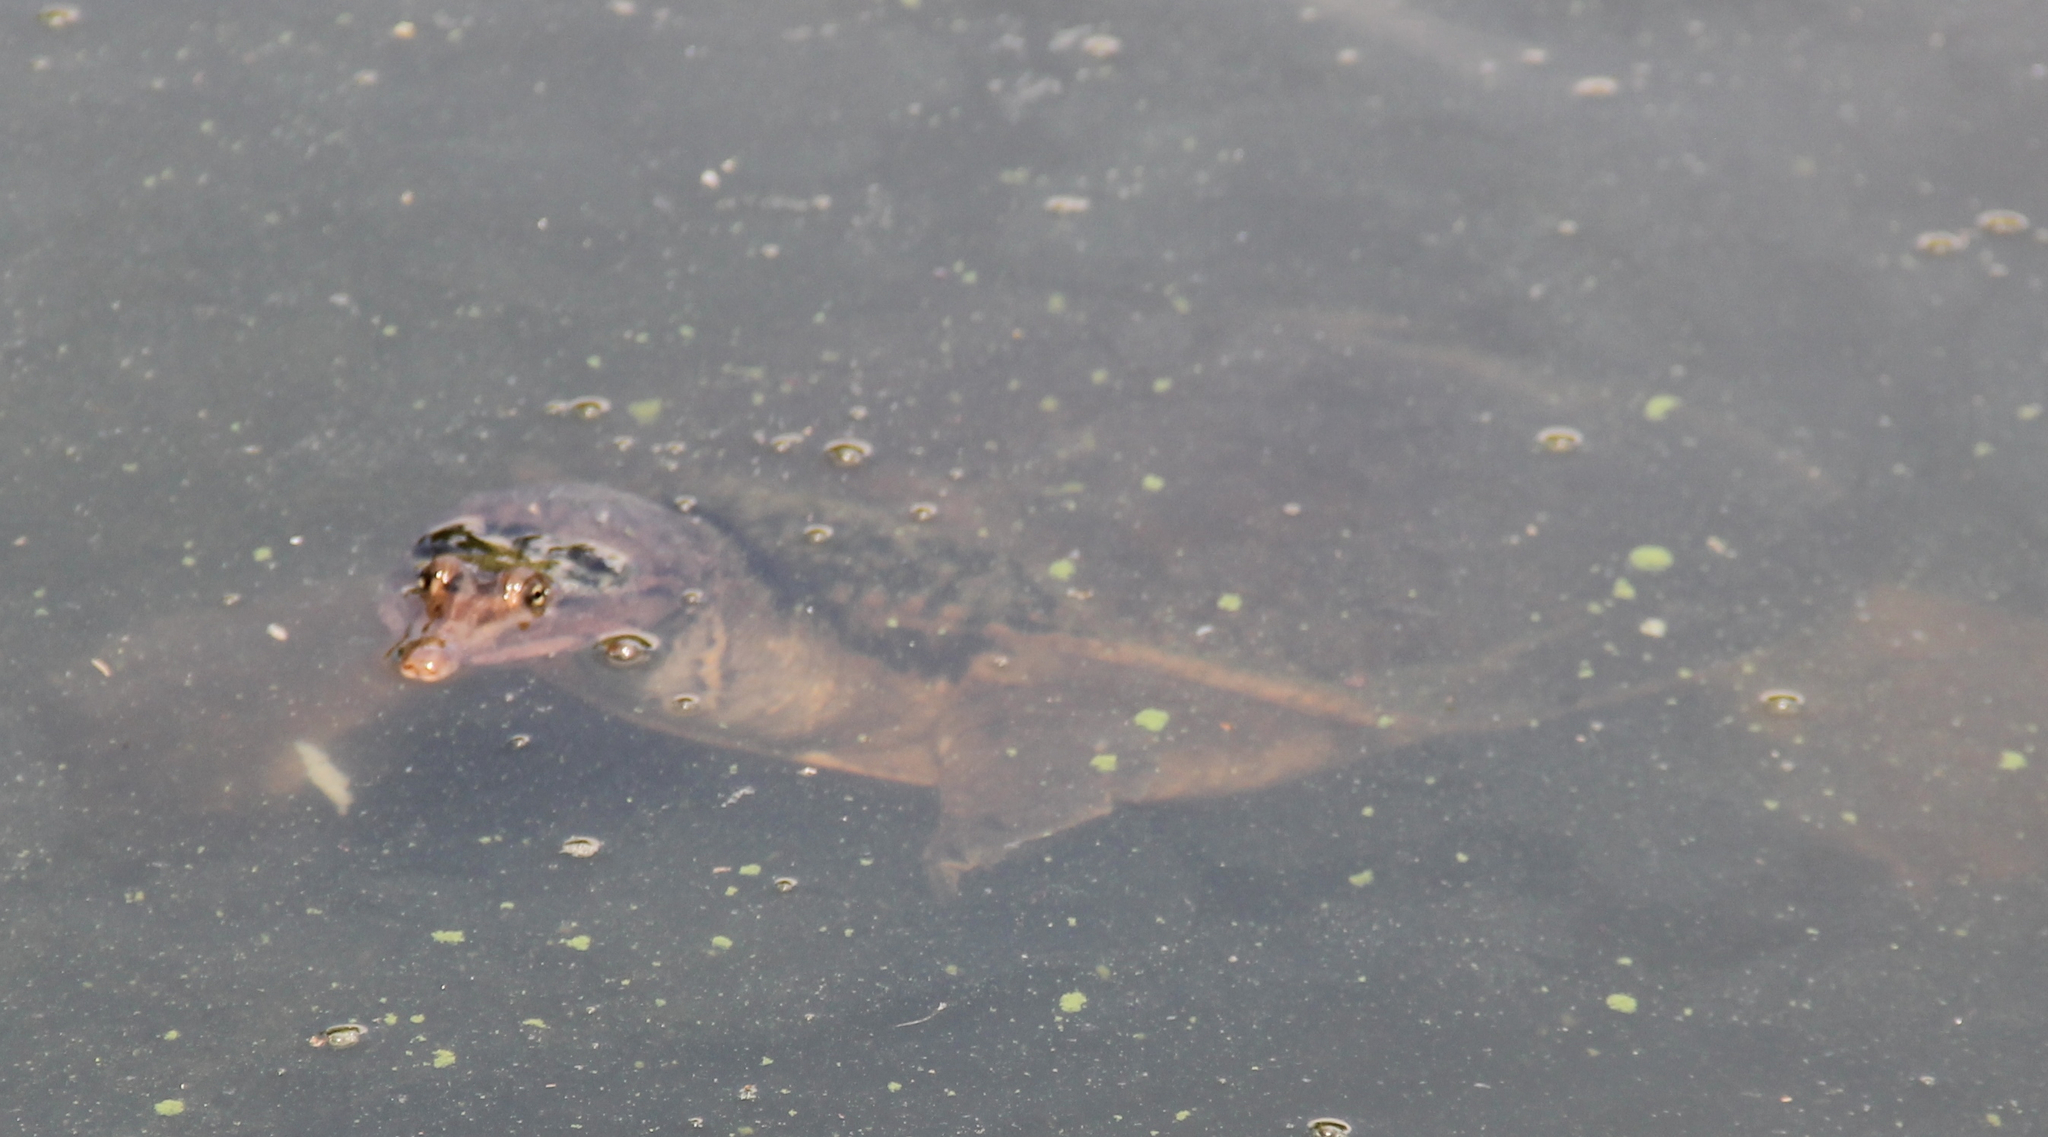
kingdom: Animalia
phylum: Chordata
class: Testudines
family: Trionychidae
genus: Apalone
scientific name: Apalone ferox
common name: Florida softshell turtle
